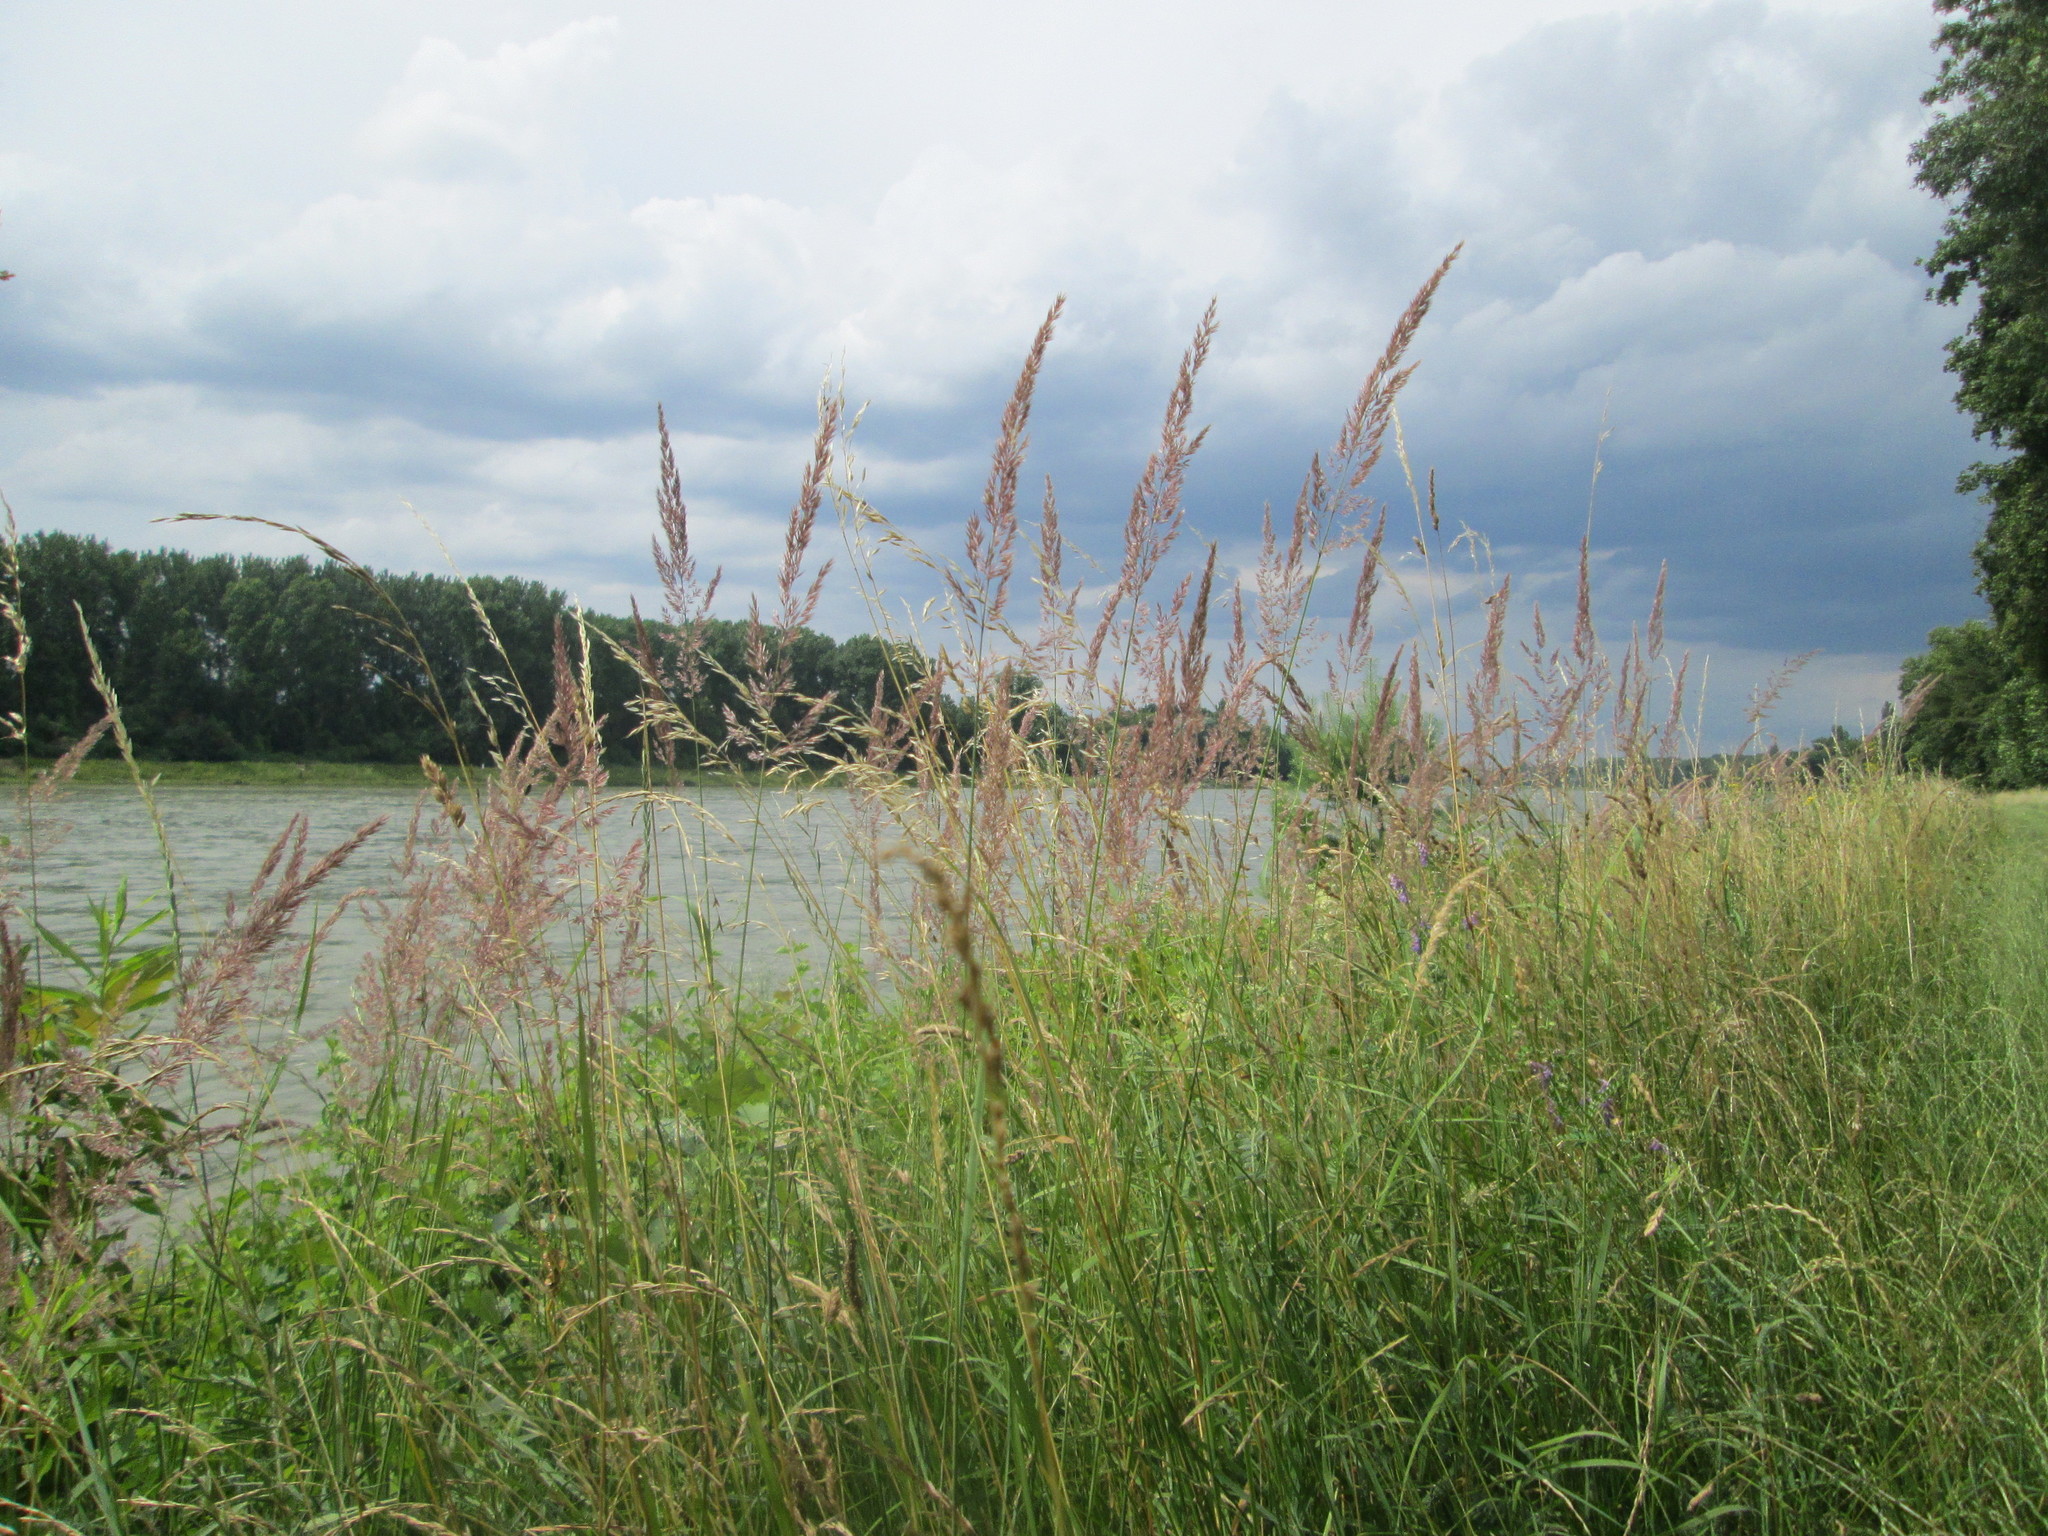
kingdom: Plantae
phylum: Tracheophyta
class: Liliopsida
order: Poales
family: Poaceae
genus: Calamagrostis
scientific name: Calamagrostis epigejos
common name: Wood small-reed
